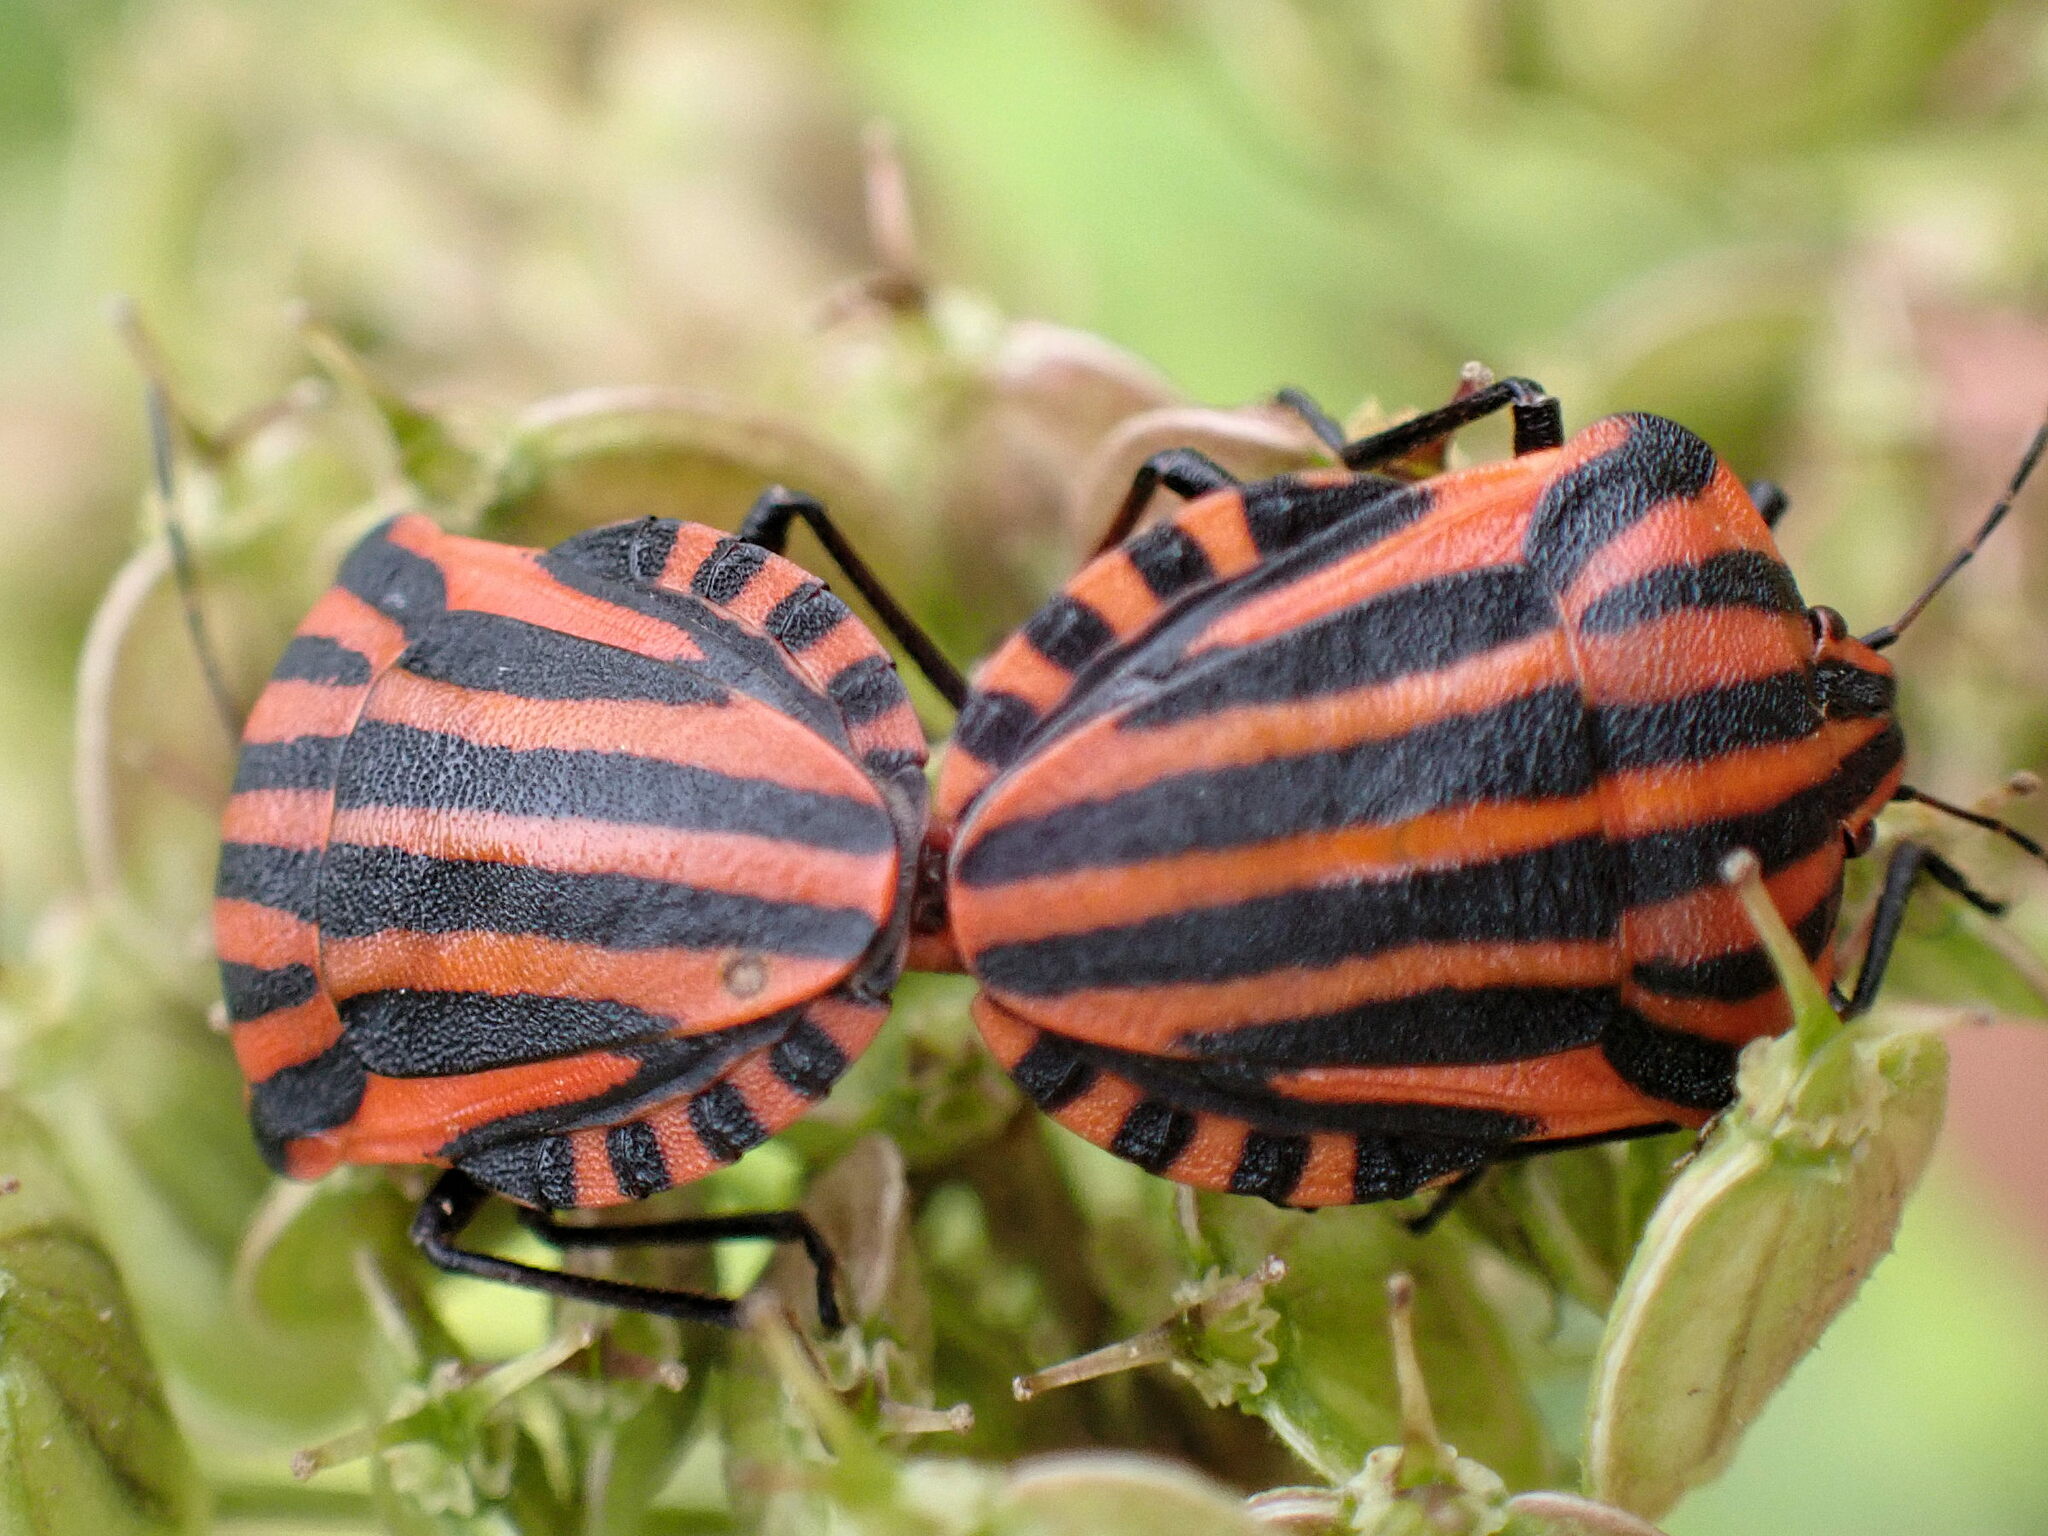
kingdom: Animalia
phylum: Arthropoda
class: Insecta
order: Hemiptera
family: Pentatomidae
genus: Graphosoma
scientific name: Graphosoma italicum
